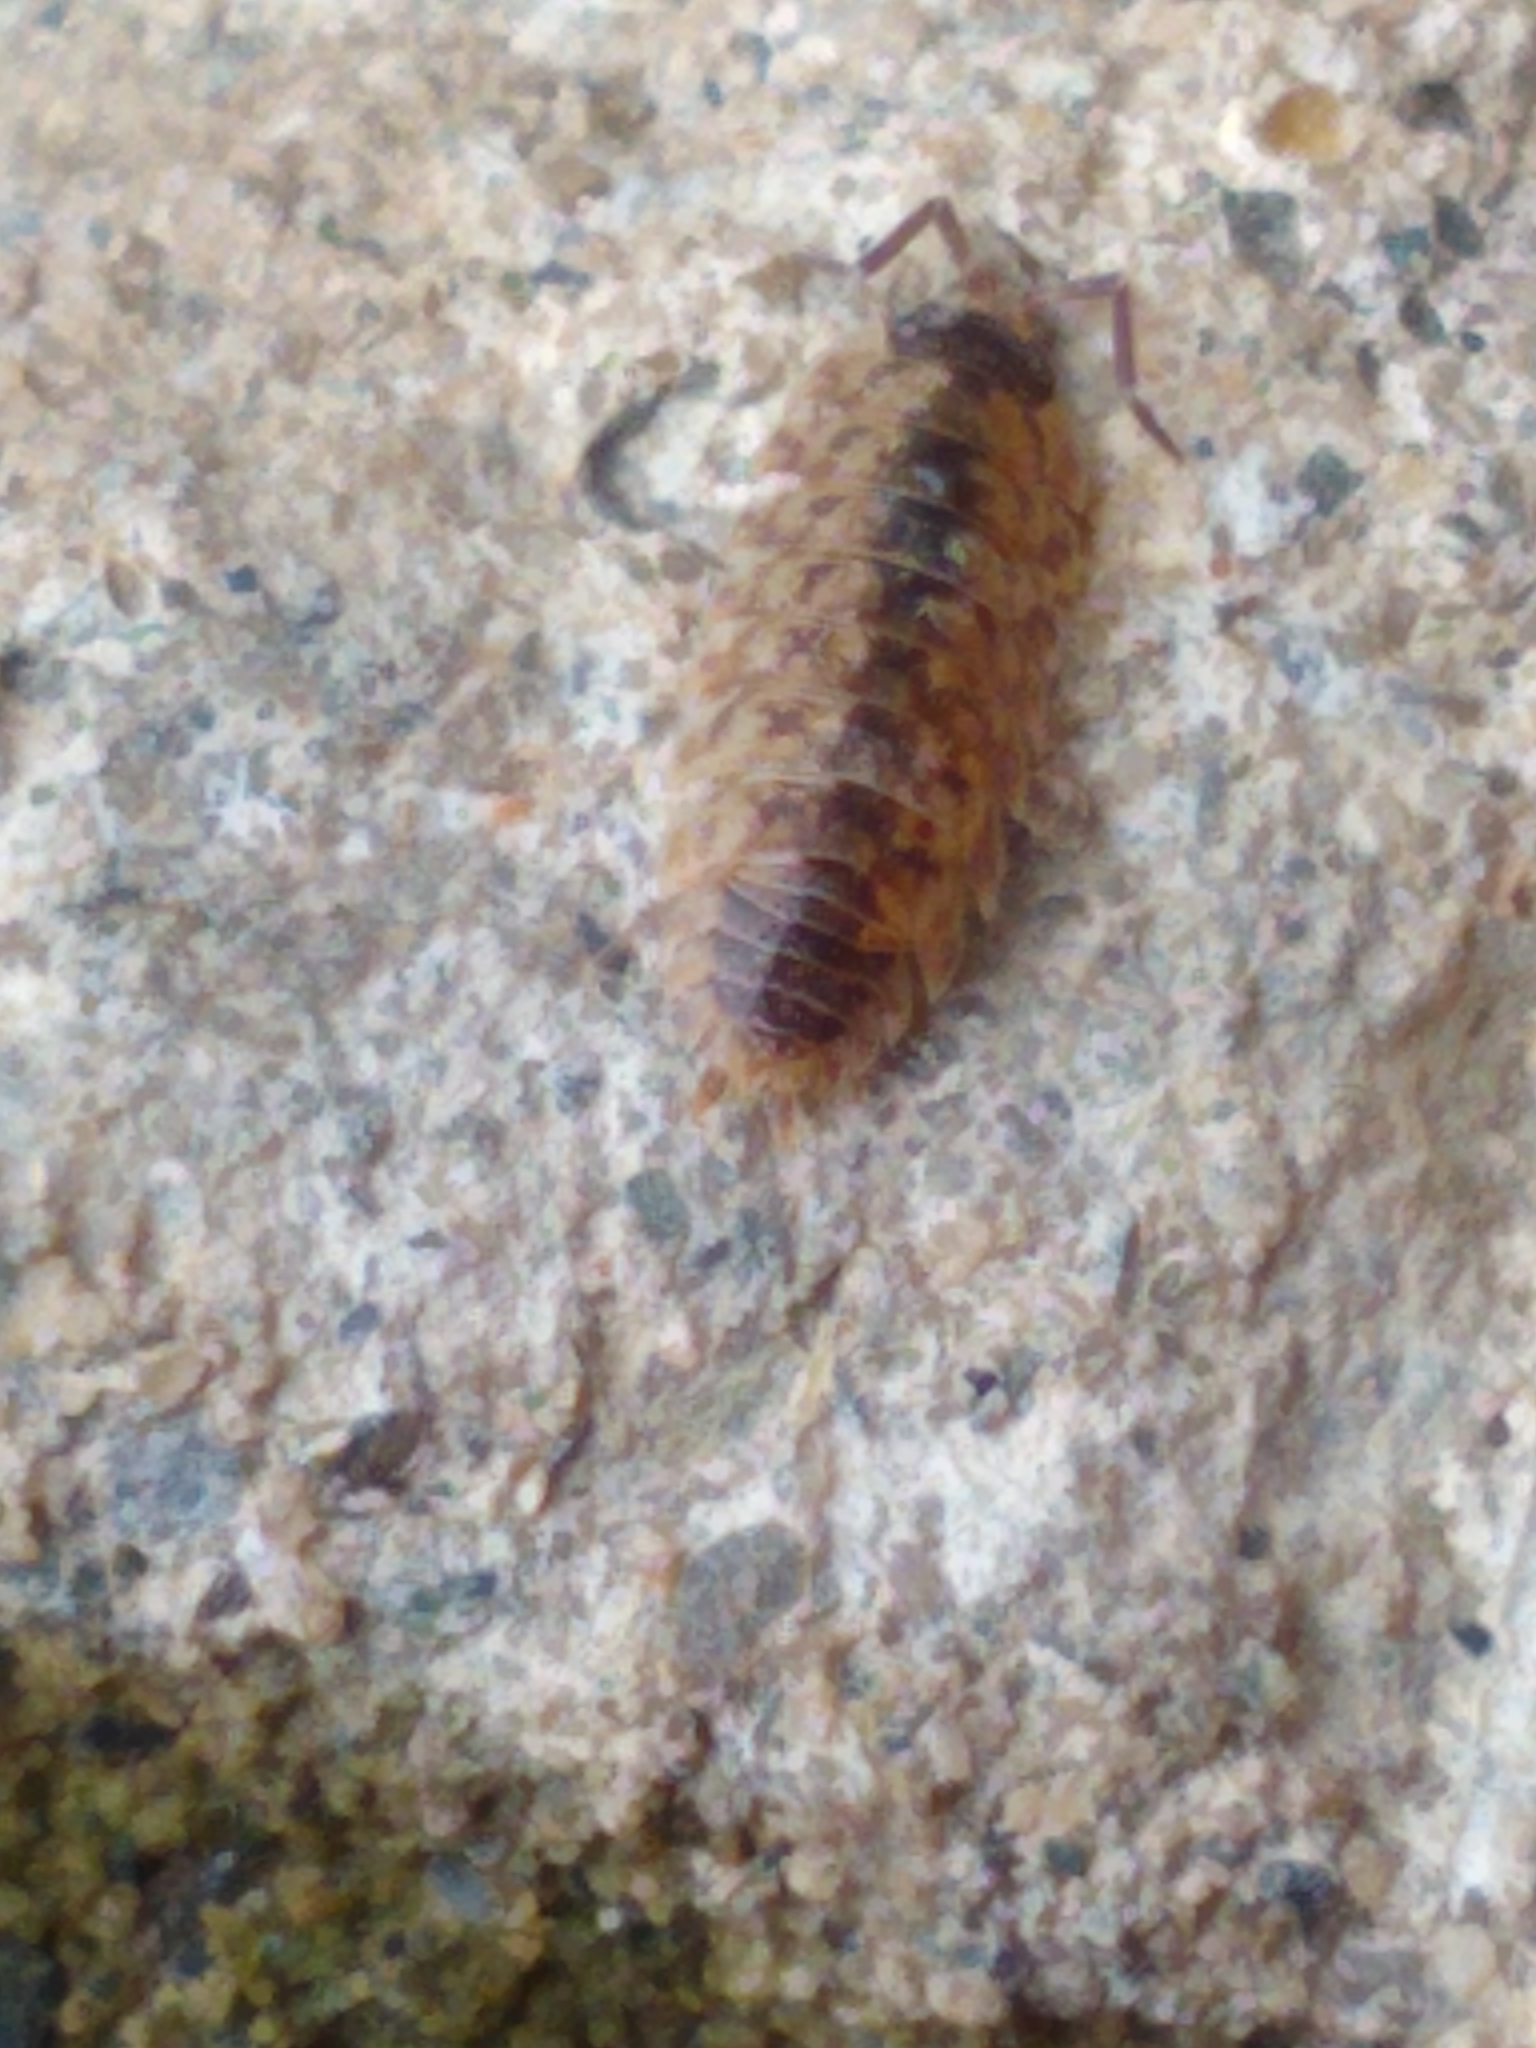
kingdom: Animalia
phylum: Arthropoda
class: Malacostraca
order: Isopoda
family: Porcellionidae
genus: Porcellio
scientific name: Porcellio spinicornis
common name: Painted woodlouse
